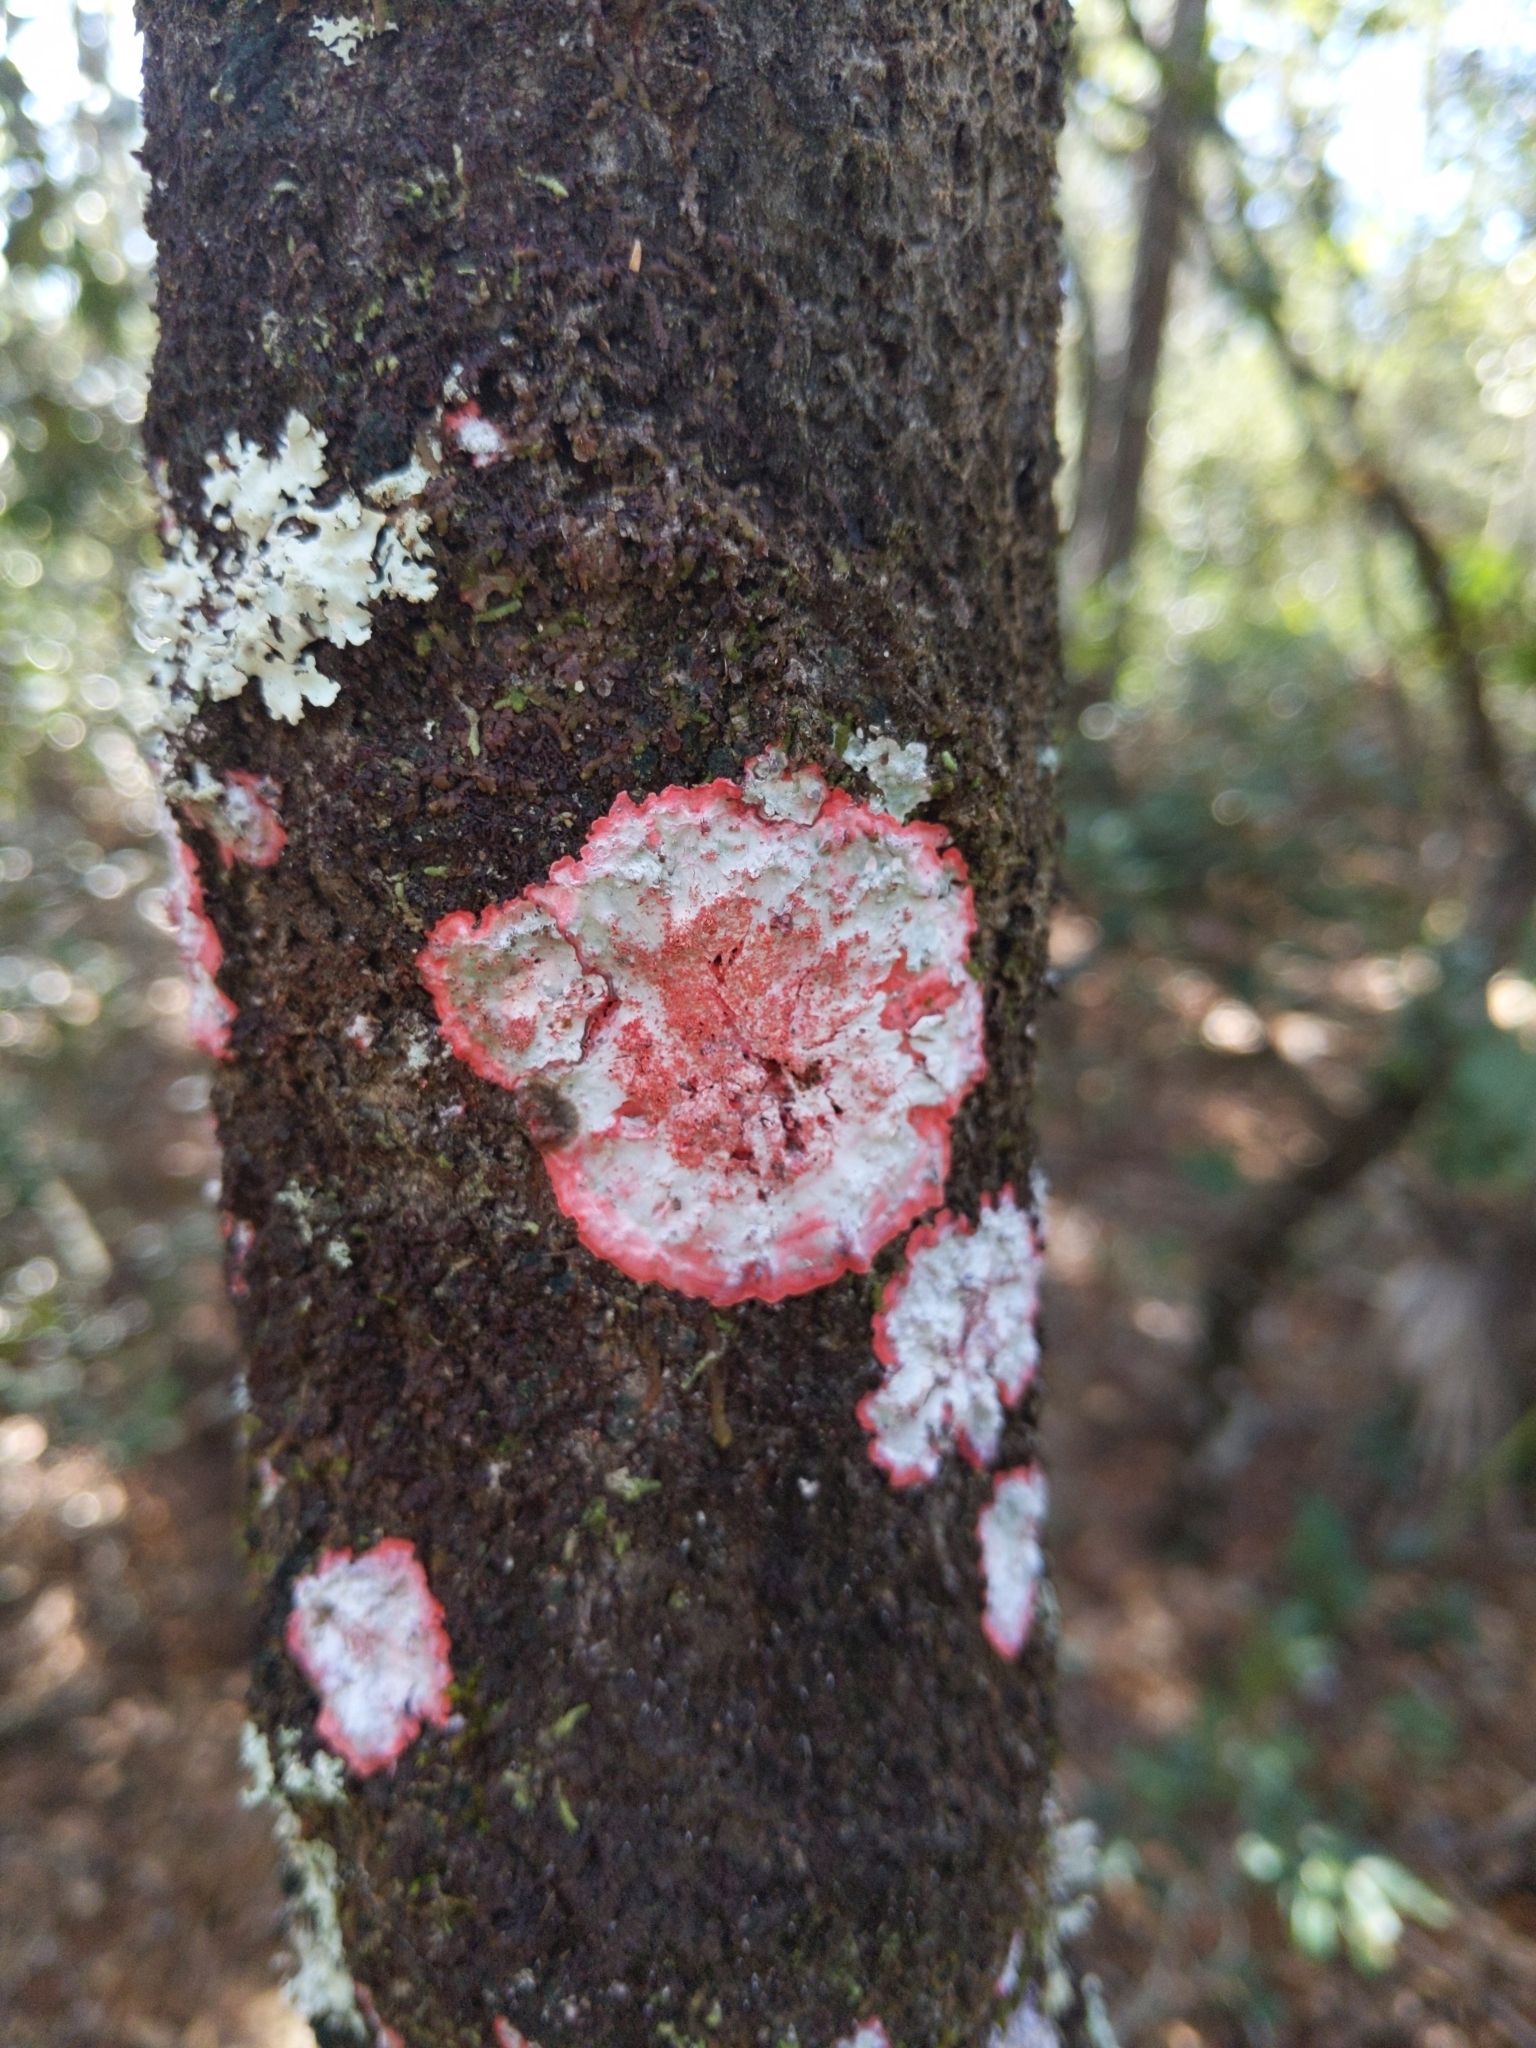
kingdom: Fungi
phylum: Ascomycota
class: Arthoniomycetes
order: Arthoniales
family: Arthoniaceae
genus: Herpothallon
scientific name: Herpothallon rubrocinctum
